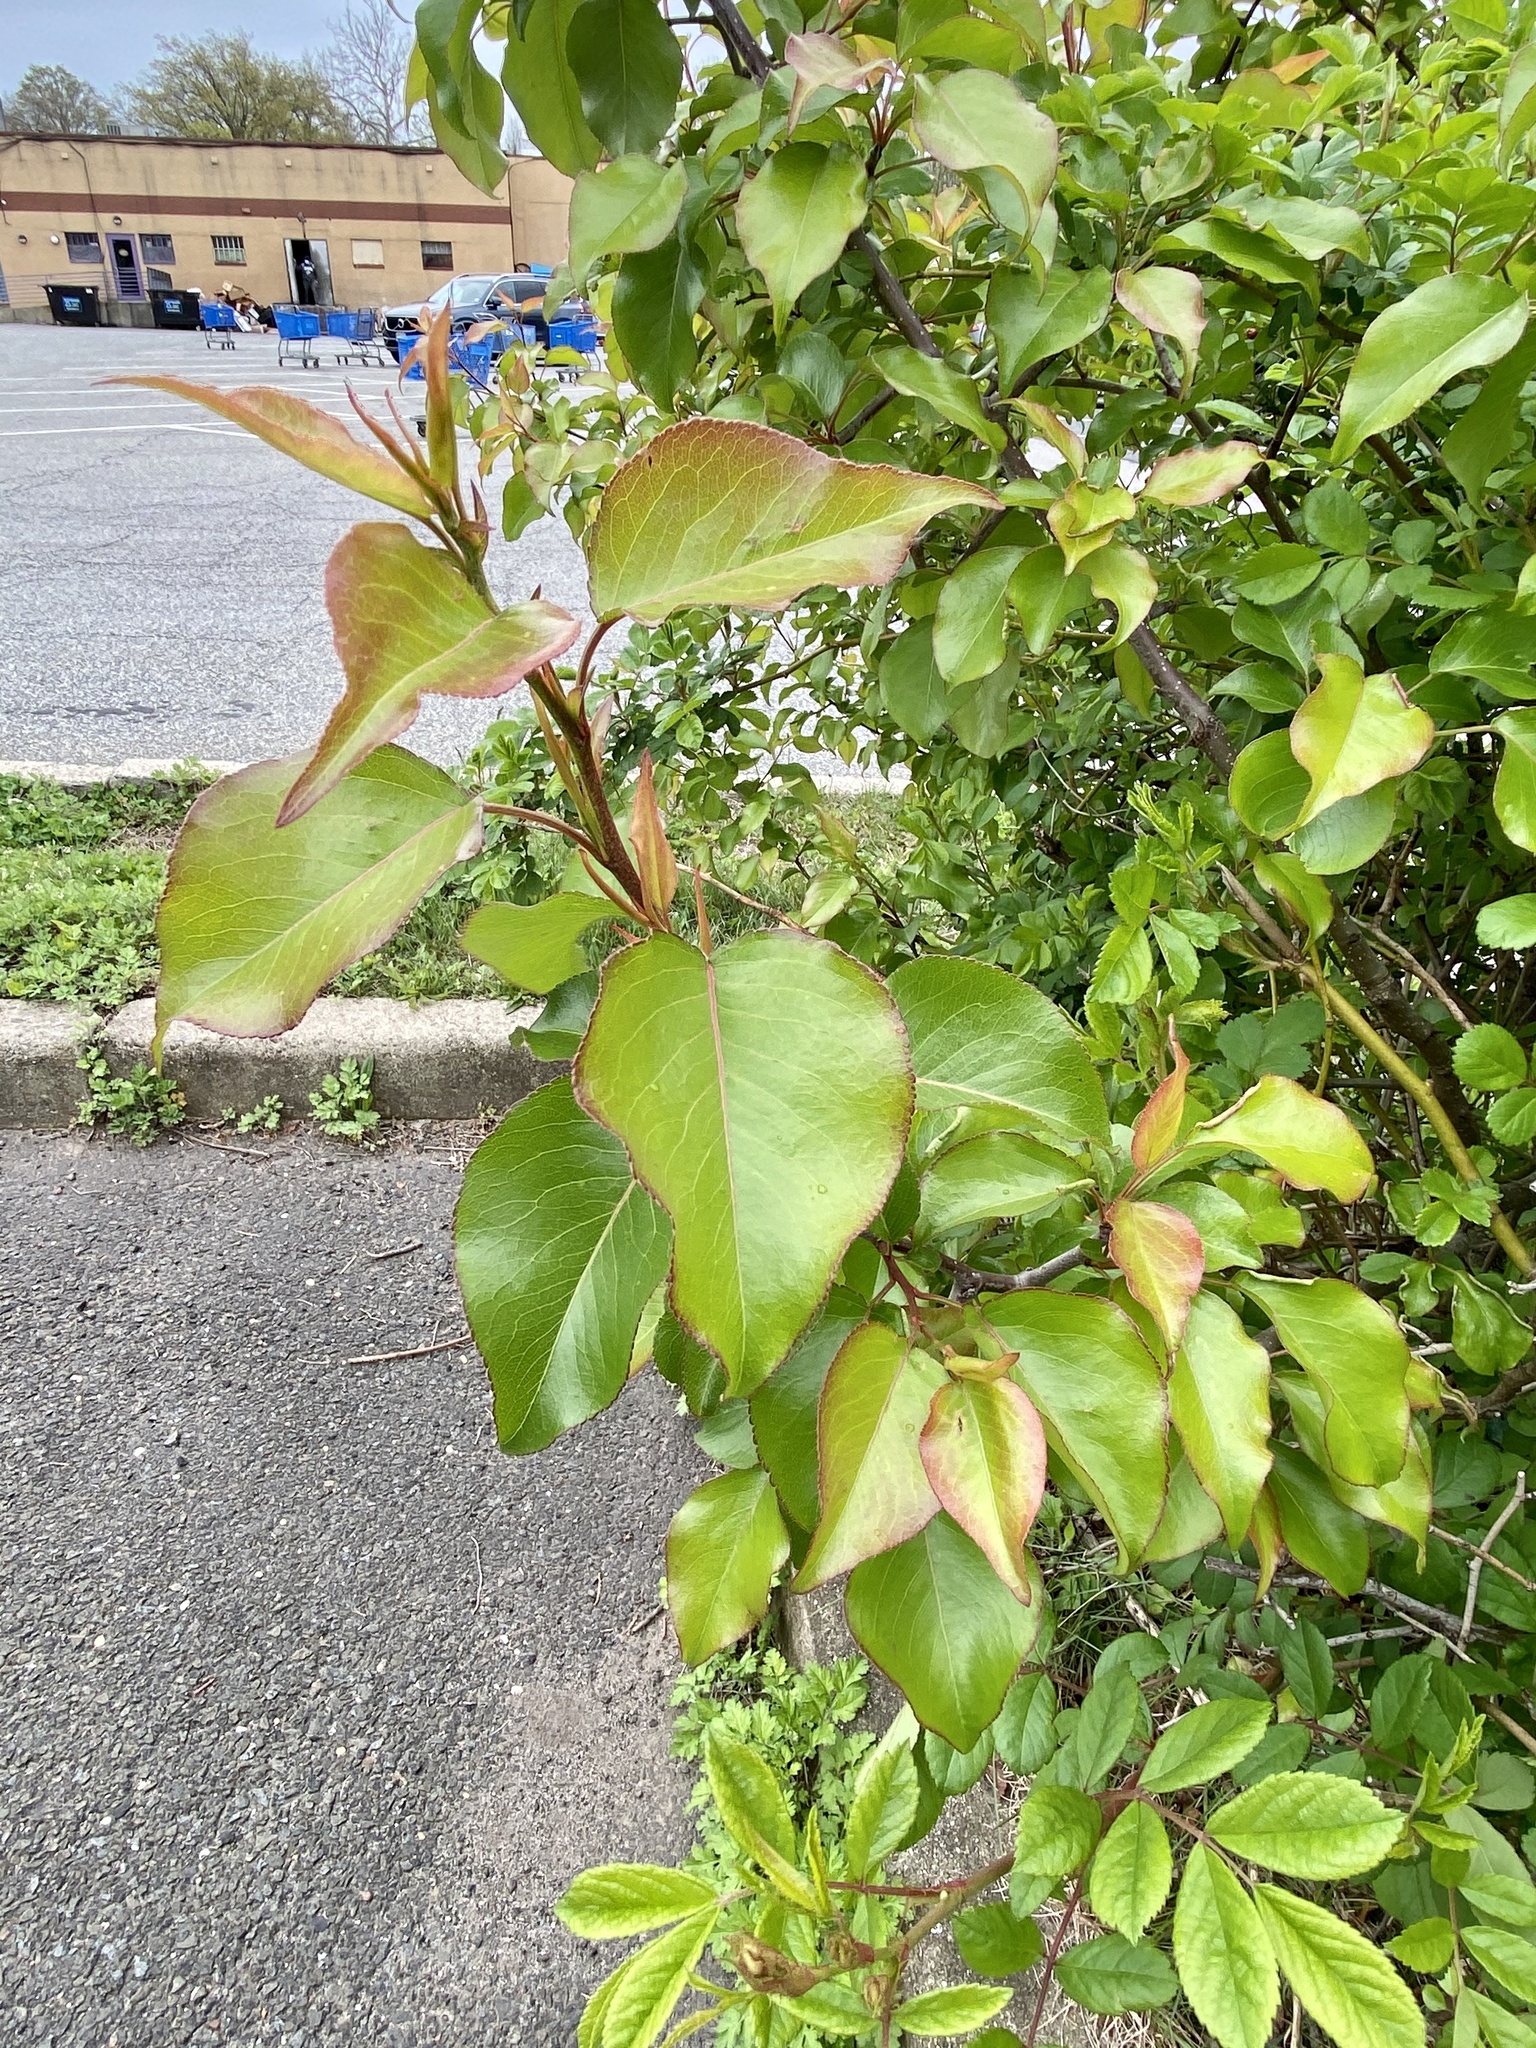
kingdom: Plantae
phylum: Tracheophyta
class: Magnoliopsida
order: Rosales
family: Rosaceae
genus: Pyrus
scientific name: Pyrus calleryana
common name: Callery pear
